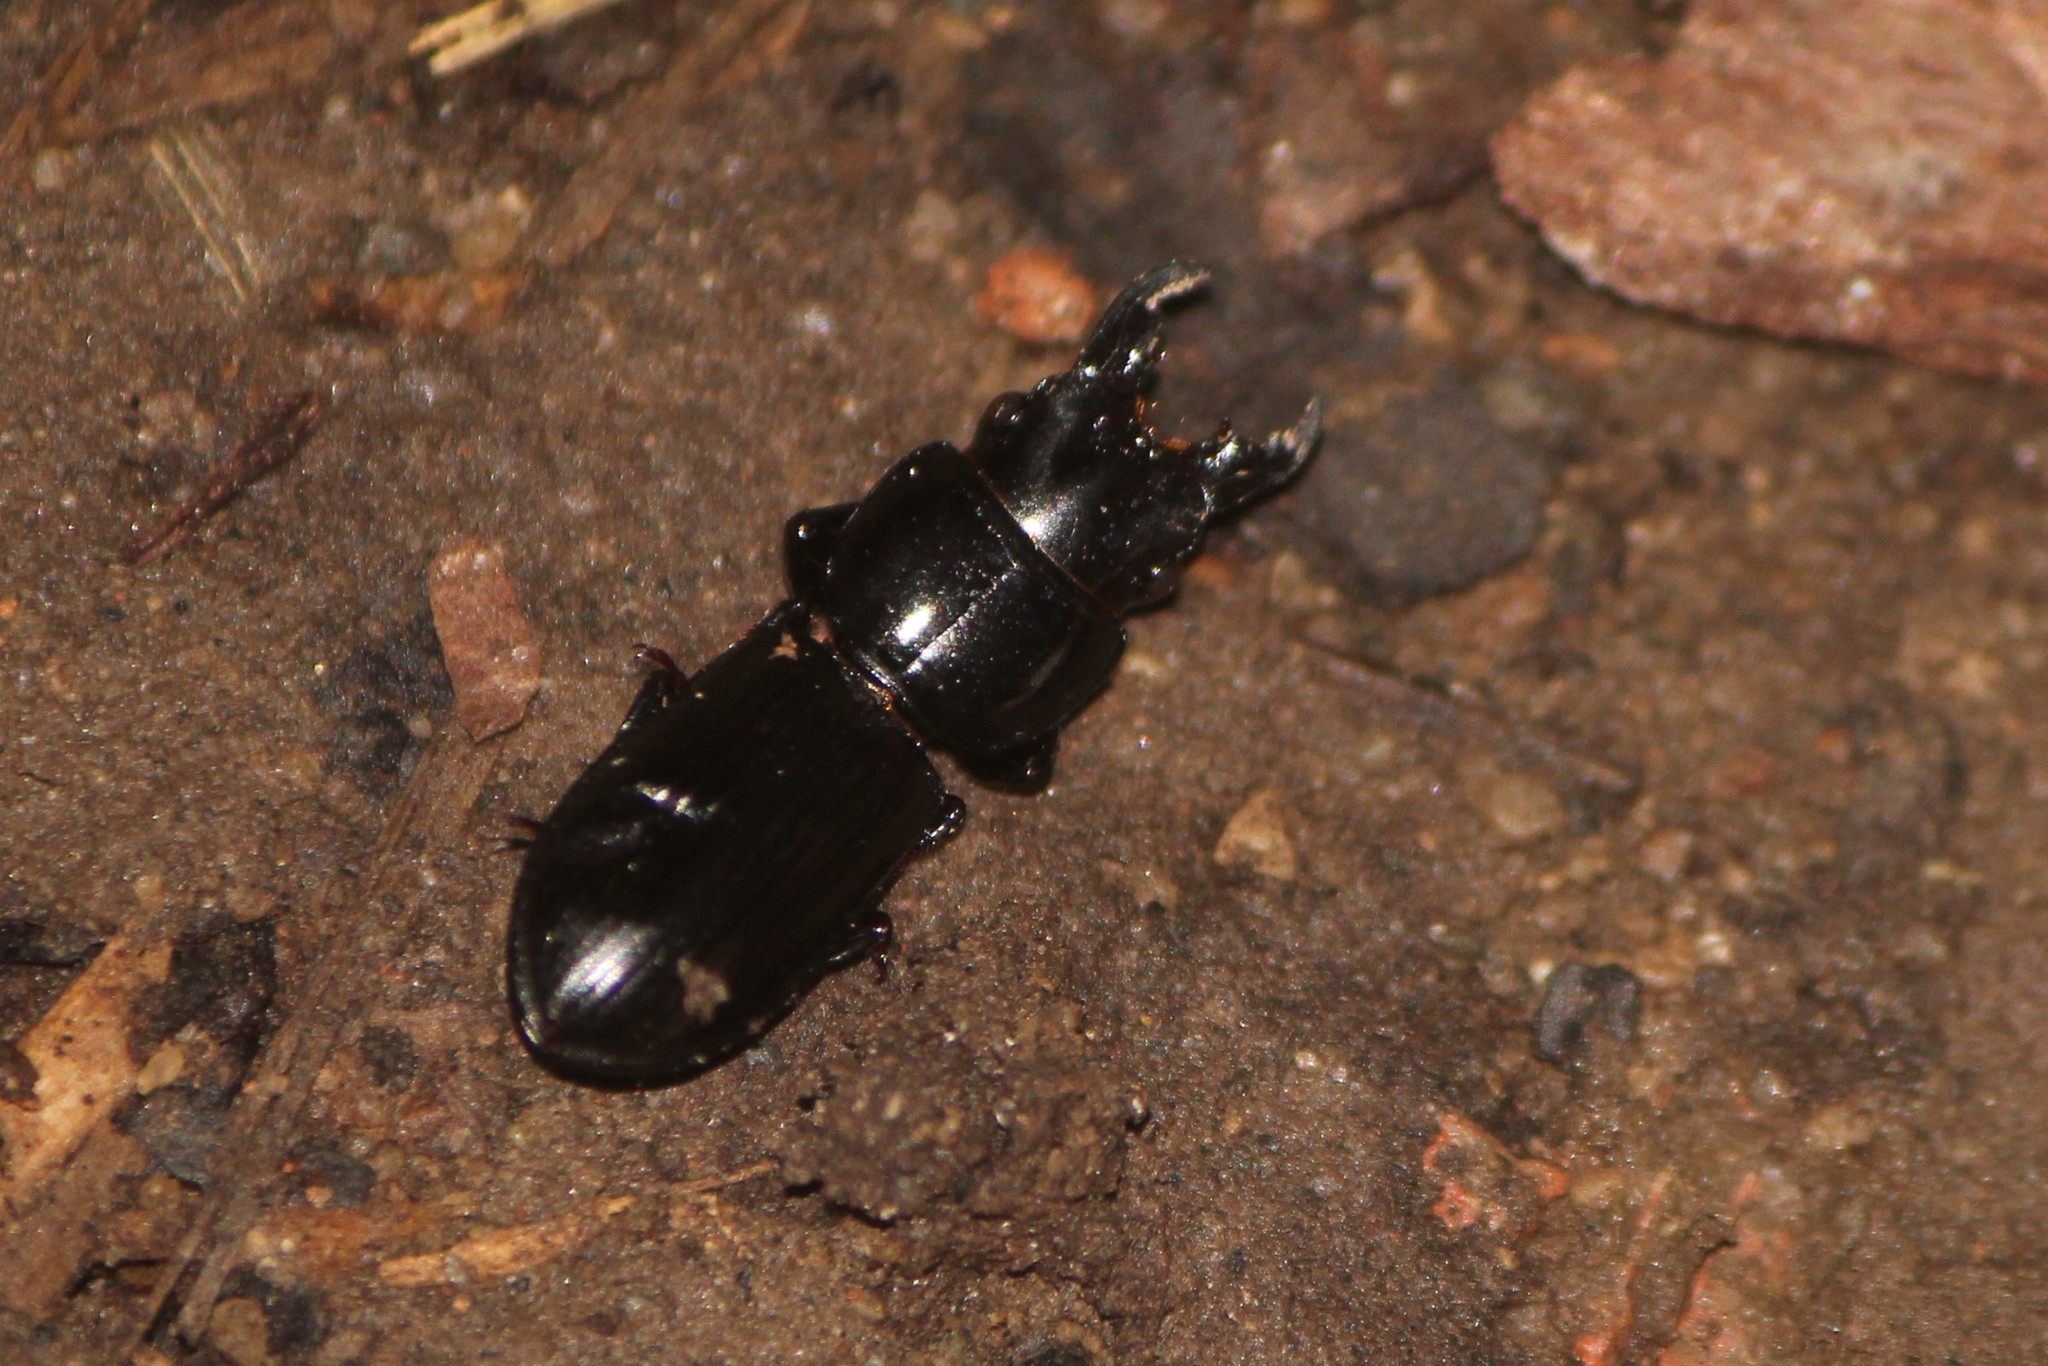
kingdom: Animalia
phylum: Arthropoda
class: Insecta
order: Coleoptera
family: Carabidae
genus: Scarites
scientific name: Scarites subterraneus
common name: Big-headed ground beetle
